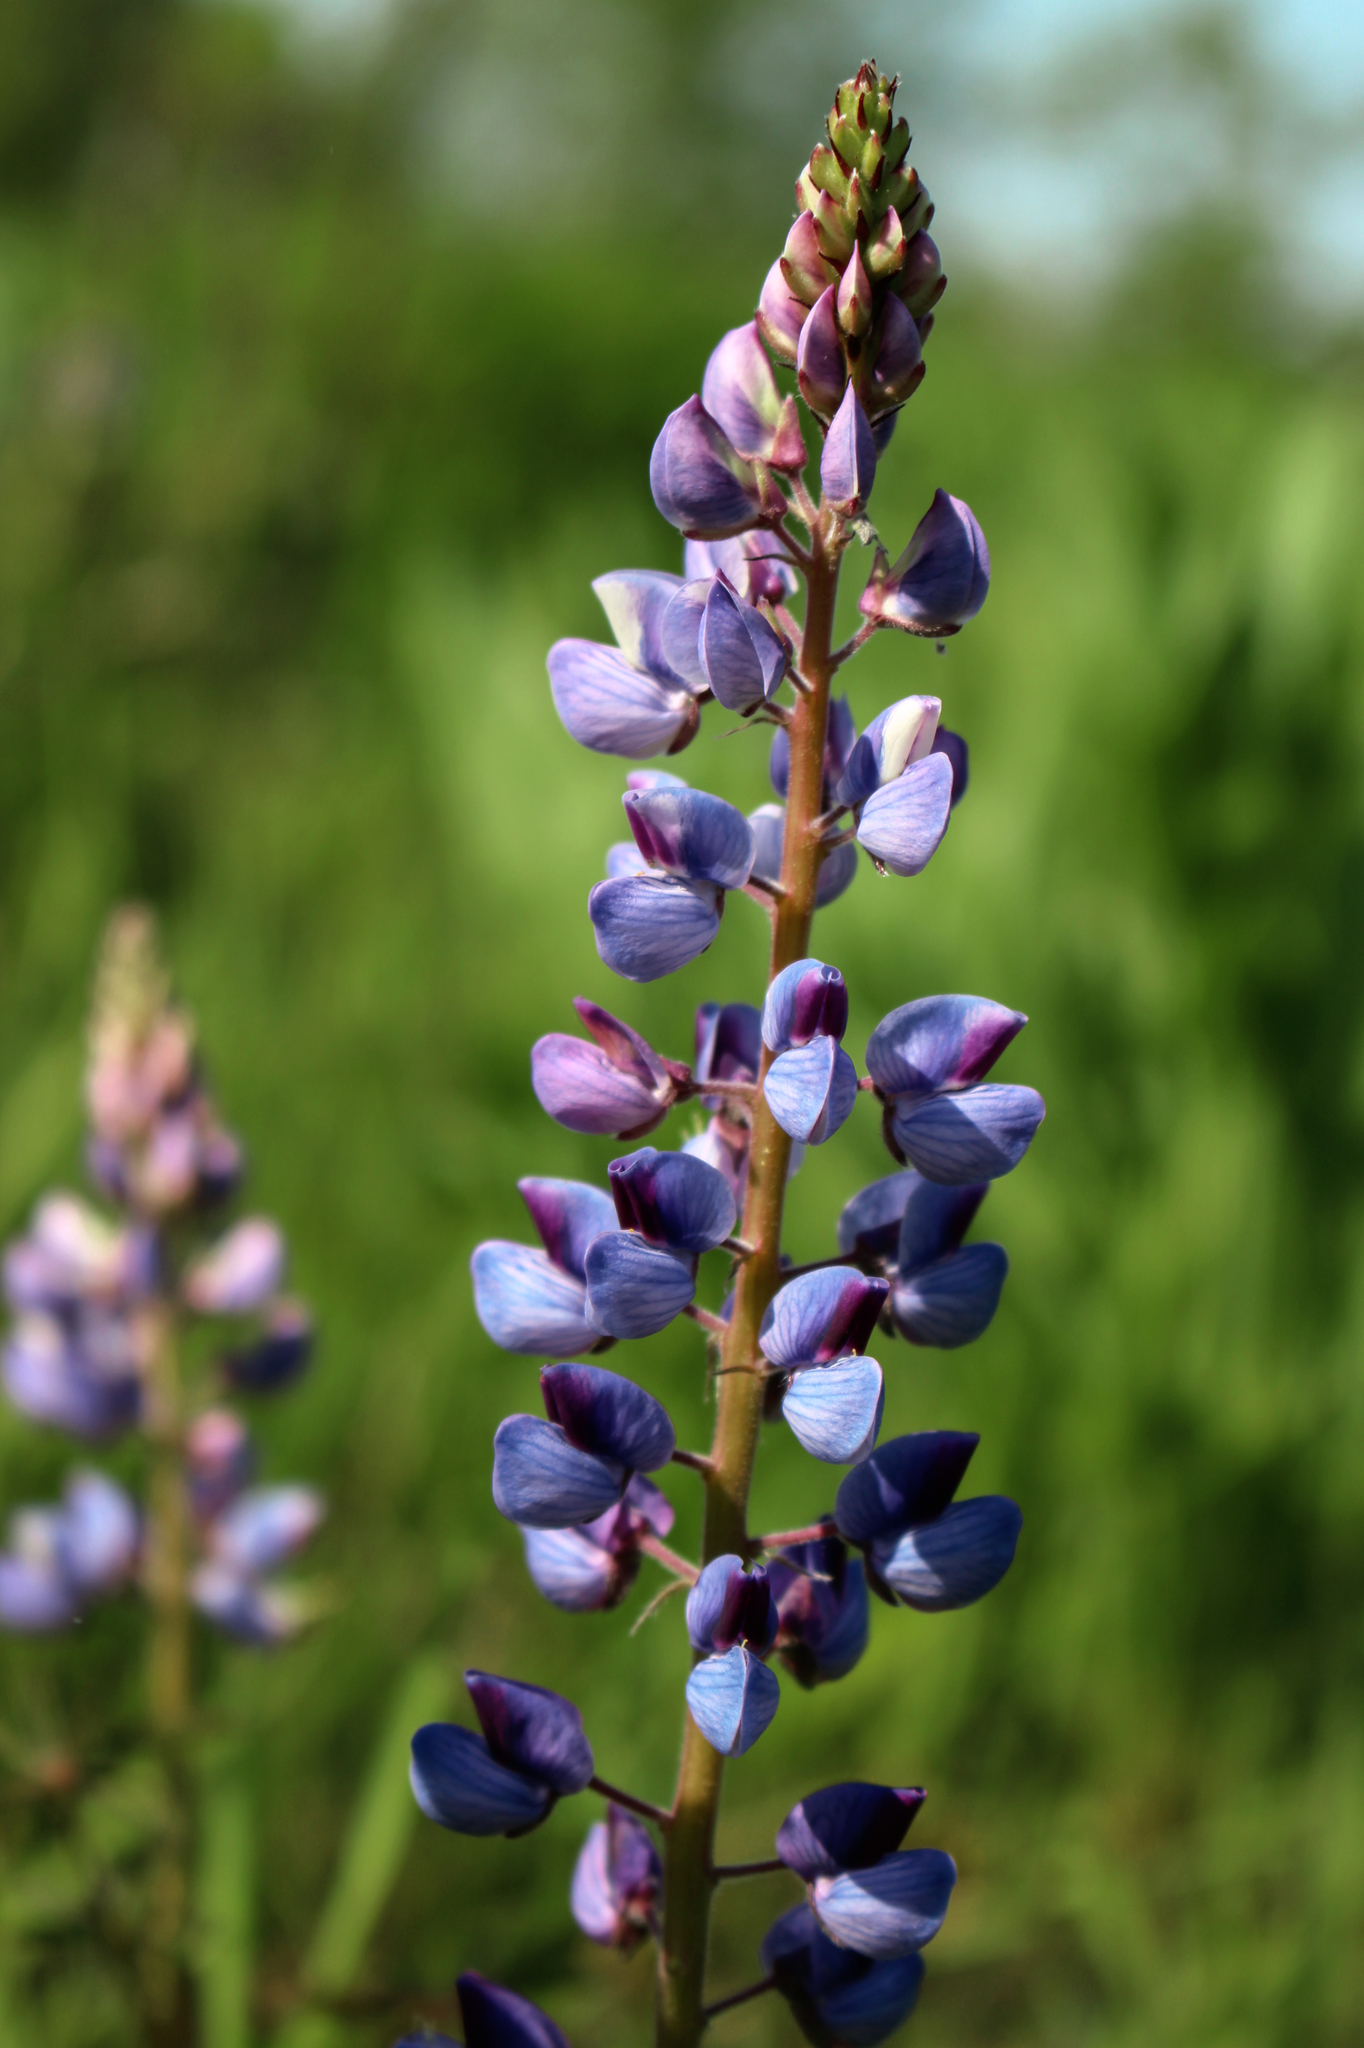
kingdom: Plantae
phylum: Tracheophyta
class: Magnoliopsida
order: Fabales
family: Fabaceae
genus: Lupinus
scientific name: Lupinus perennis
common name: Sundial lupine
